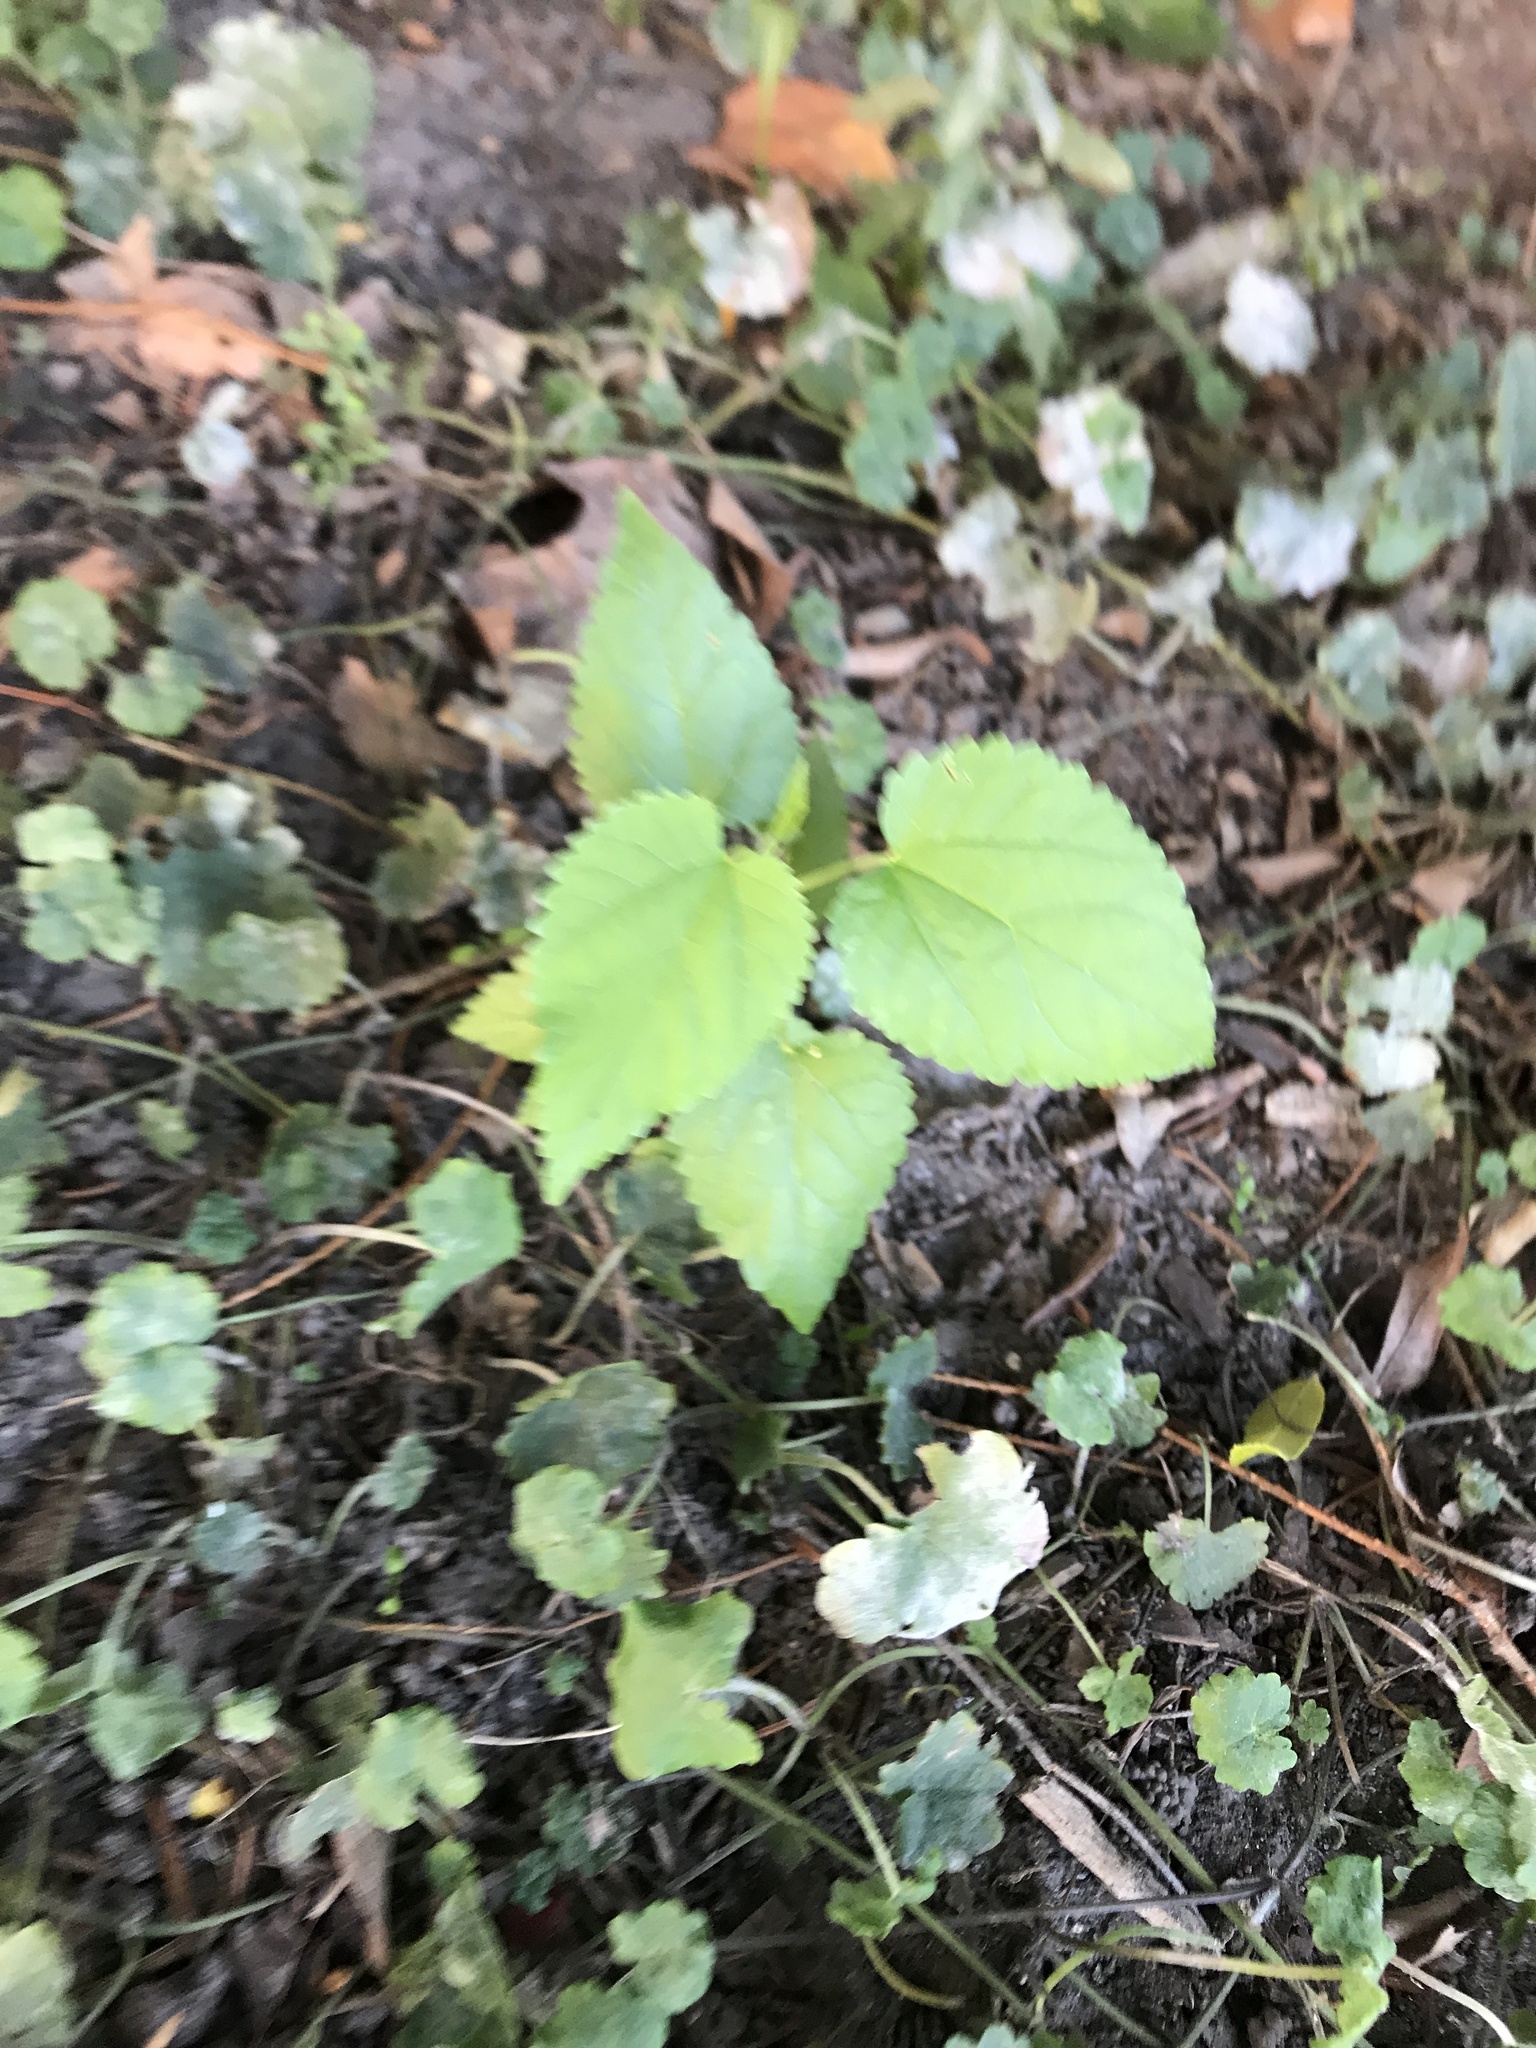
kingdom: Plantae
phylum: Tracheophyta
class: Magnoliopsida
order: Rosales
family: Moraceae
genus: Morus
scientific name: Morus alba
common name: White mulberry
